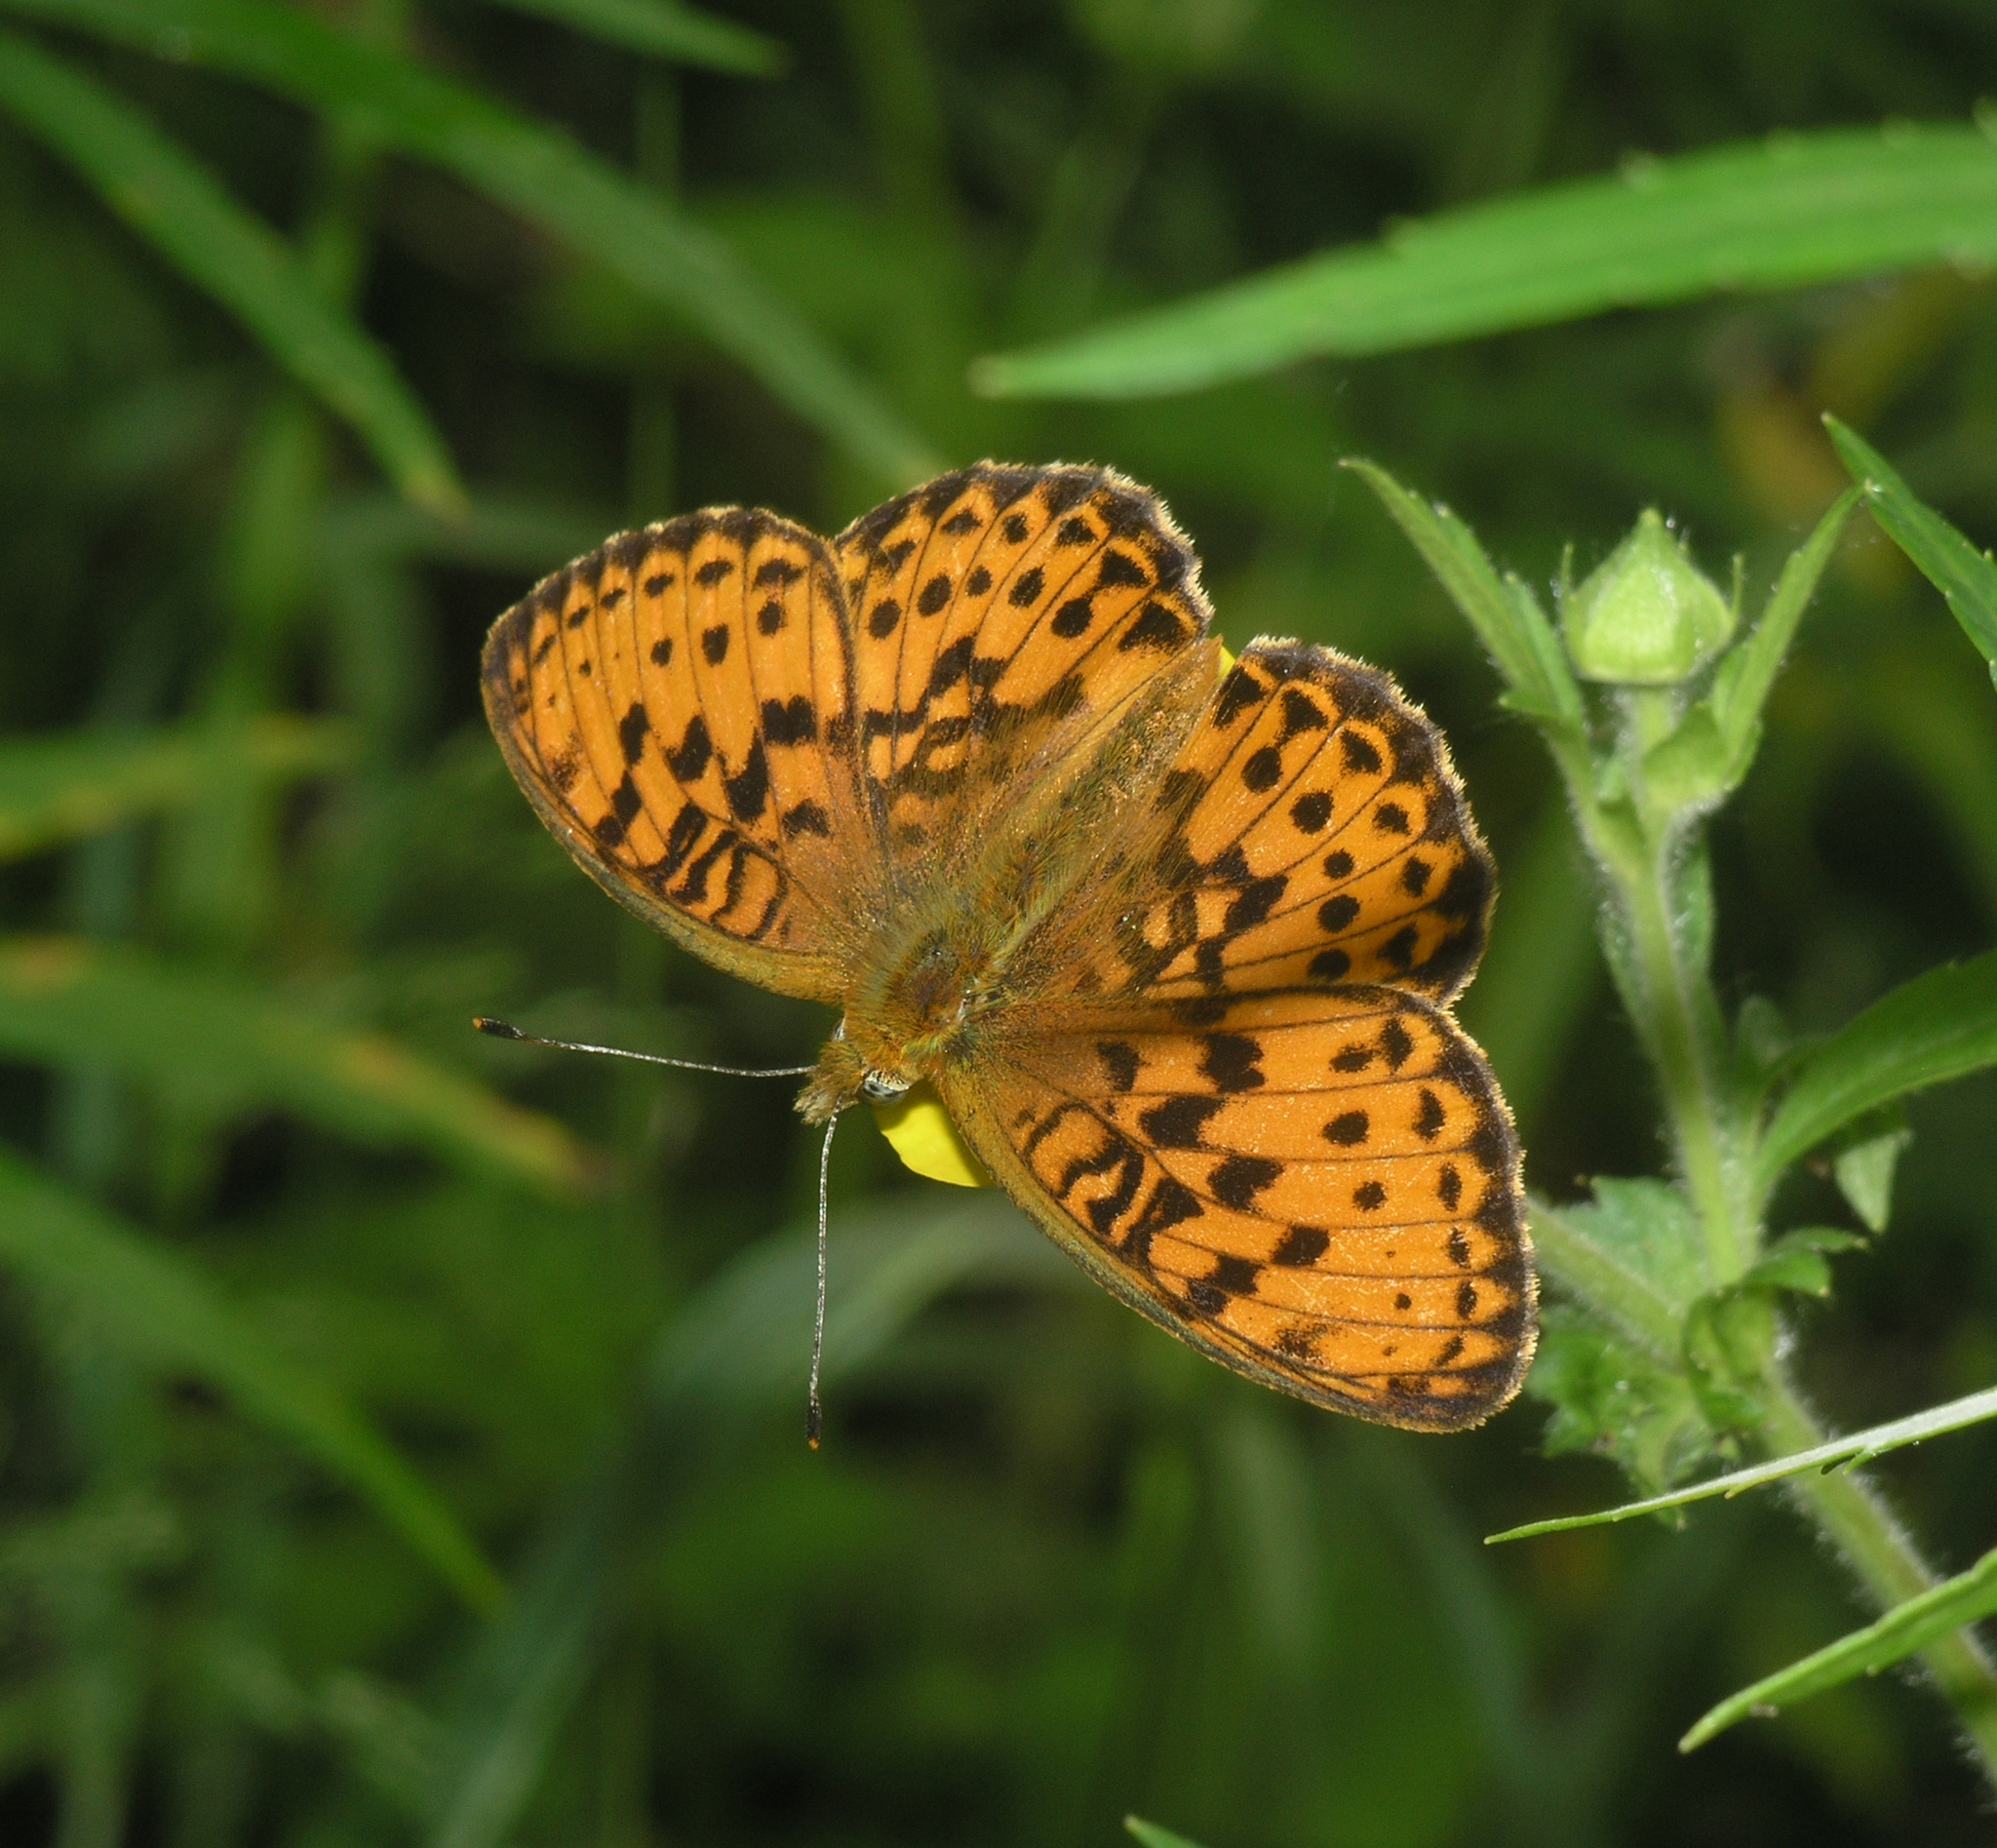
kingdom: Animalia
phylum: Arthropoda
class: Insecta
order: Lepidoptera
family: Nymphalidae
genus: Brenthis
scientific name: Brenthis ino
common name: Lesser marbled fritillary
